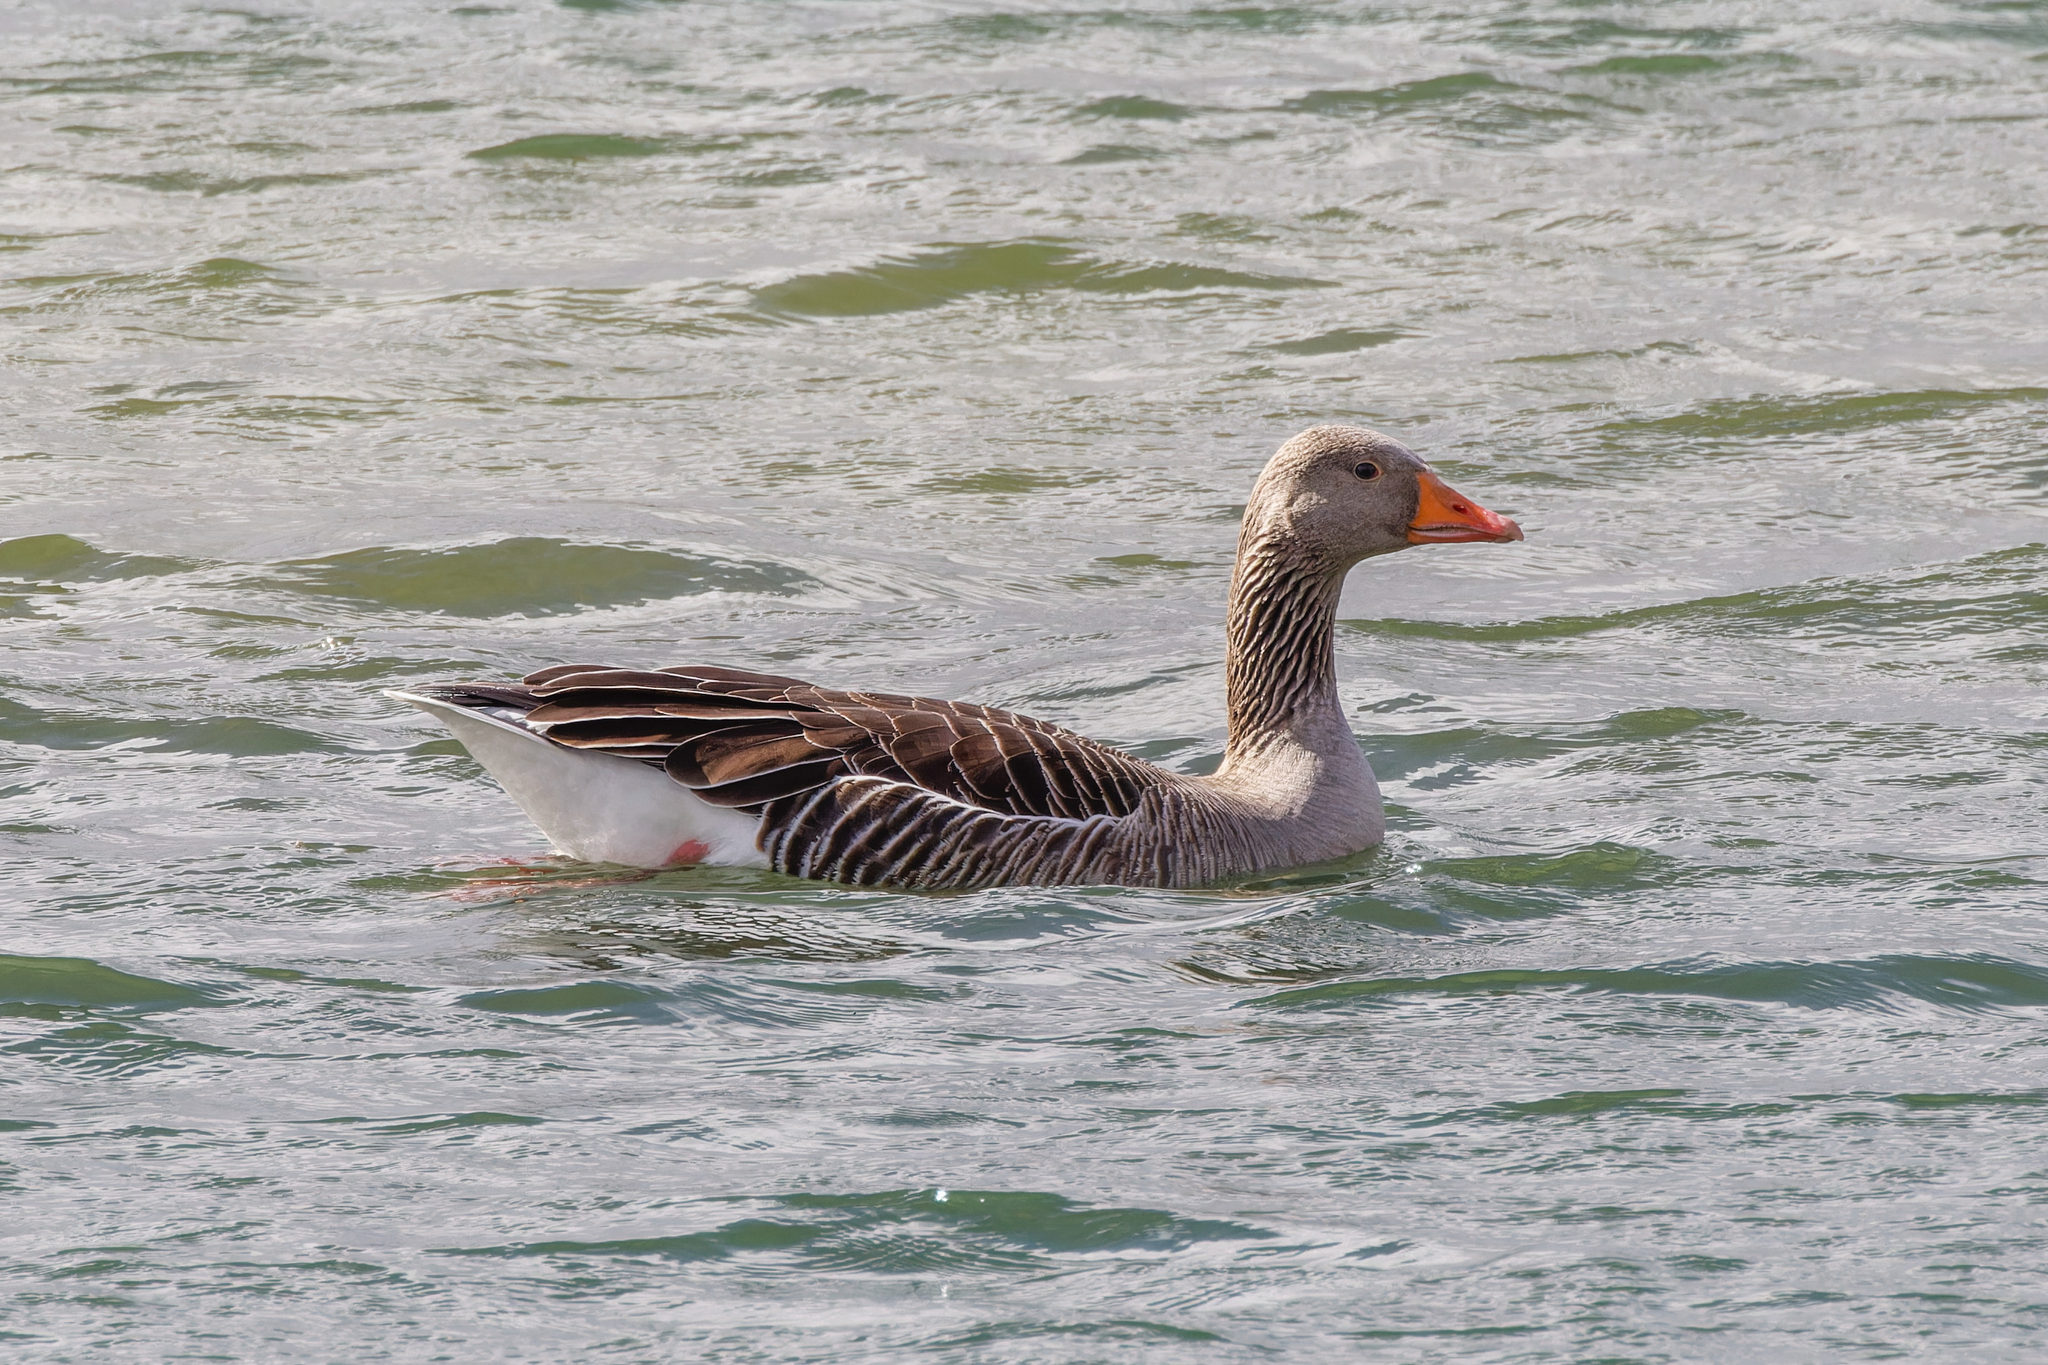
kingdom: Animalia
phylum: Chordata
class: Aves
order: Anseriformes
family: Anatidae
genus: Anser
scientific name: Anser anser
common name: Greylag goose
